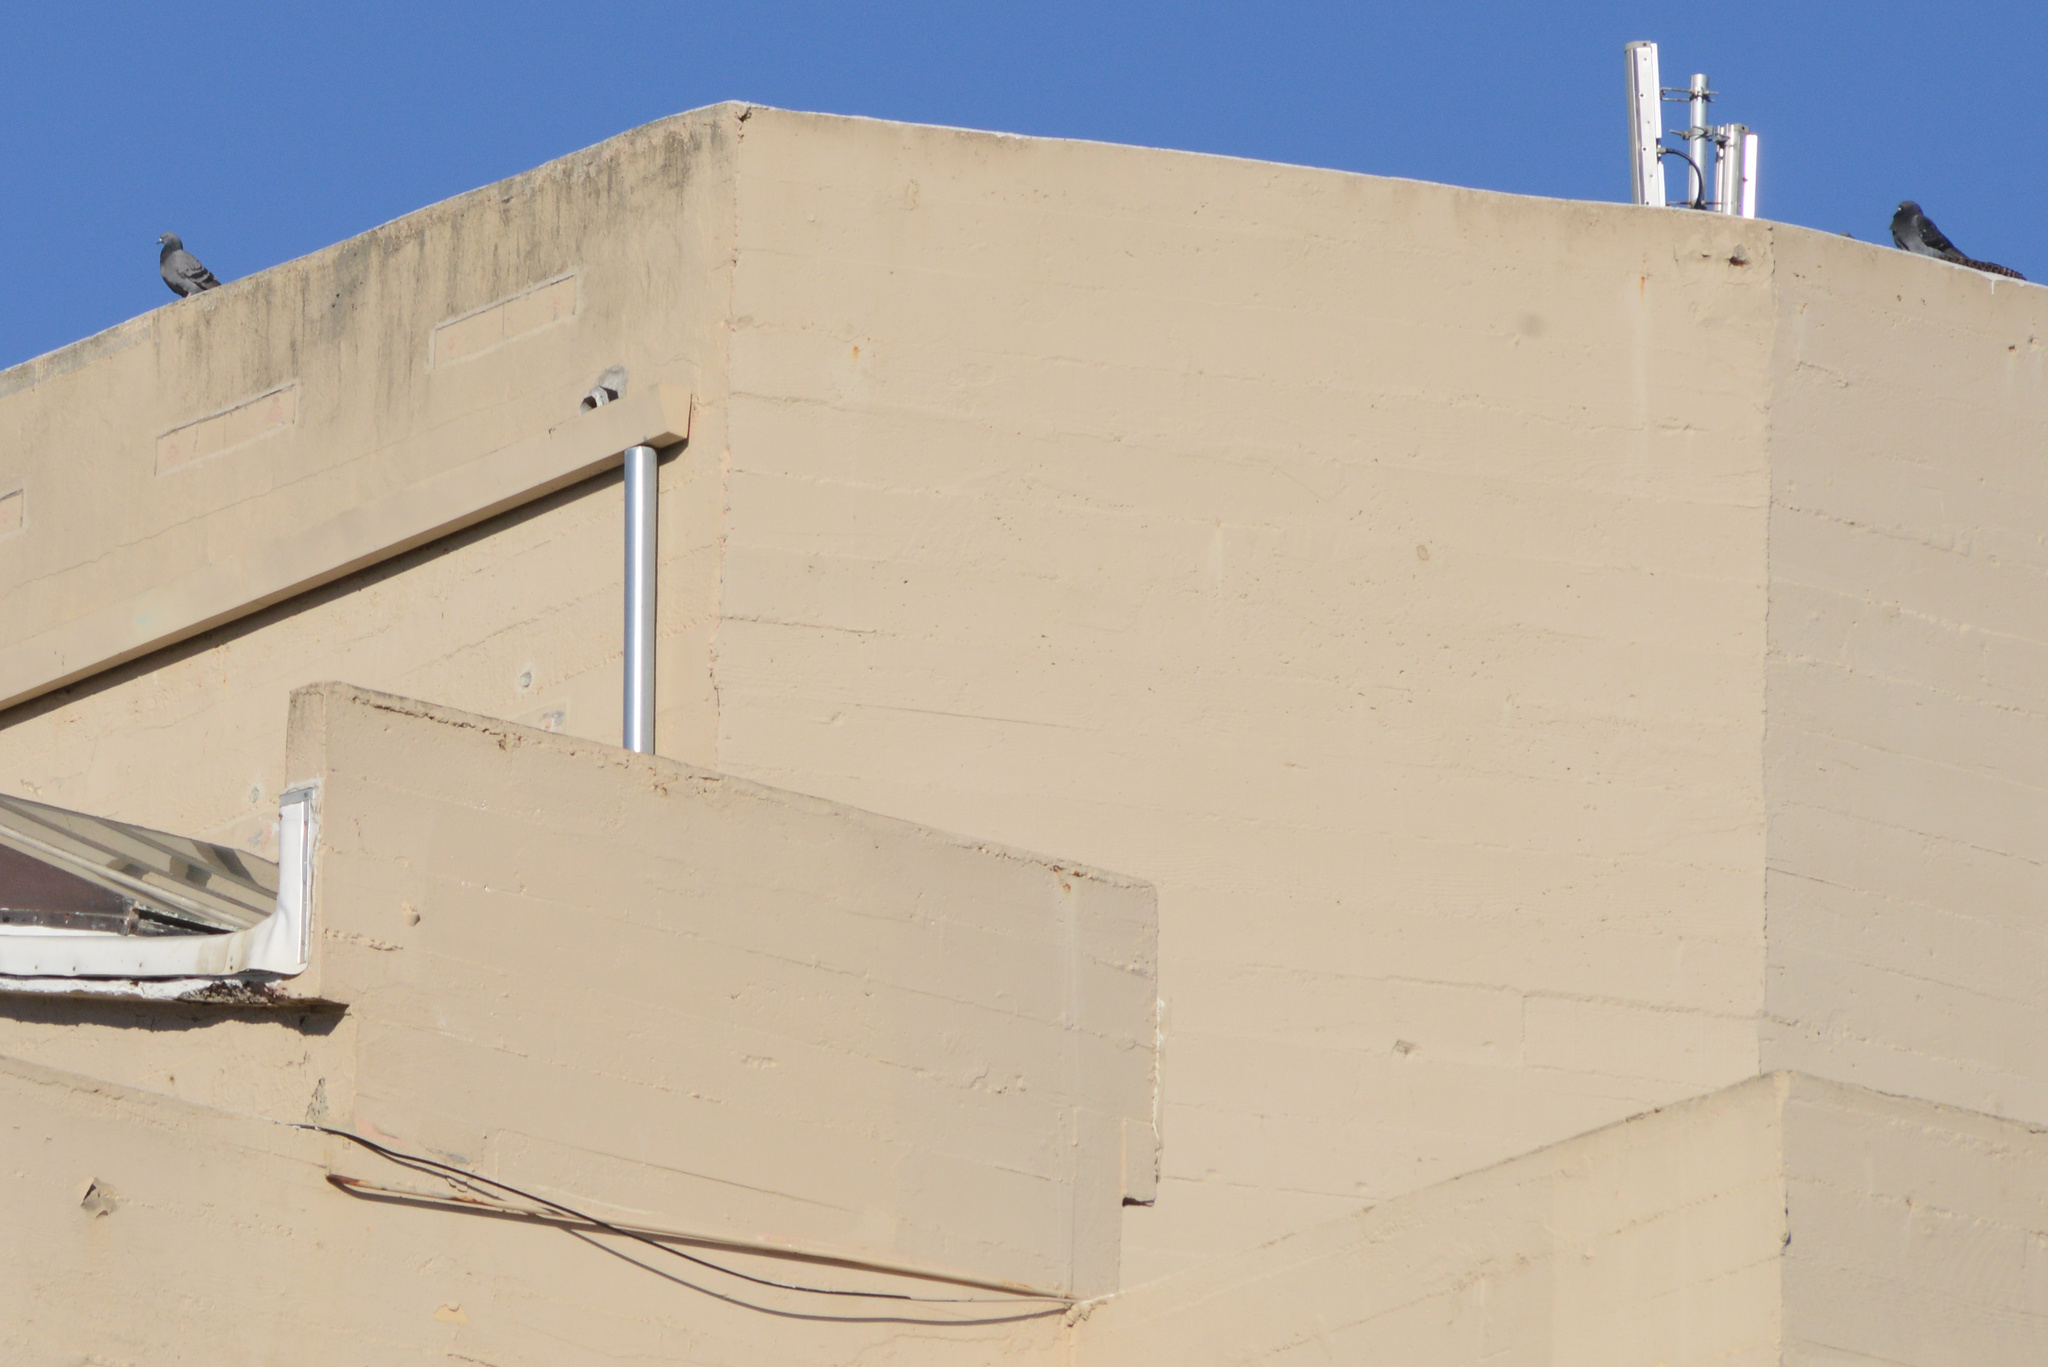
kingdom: Animalia
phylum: Chordata
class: Aves
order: Columbiformes
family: Columbidae
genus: Columba
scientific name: Columba livia
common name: Rock pigeon
